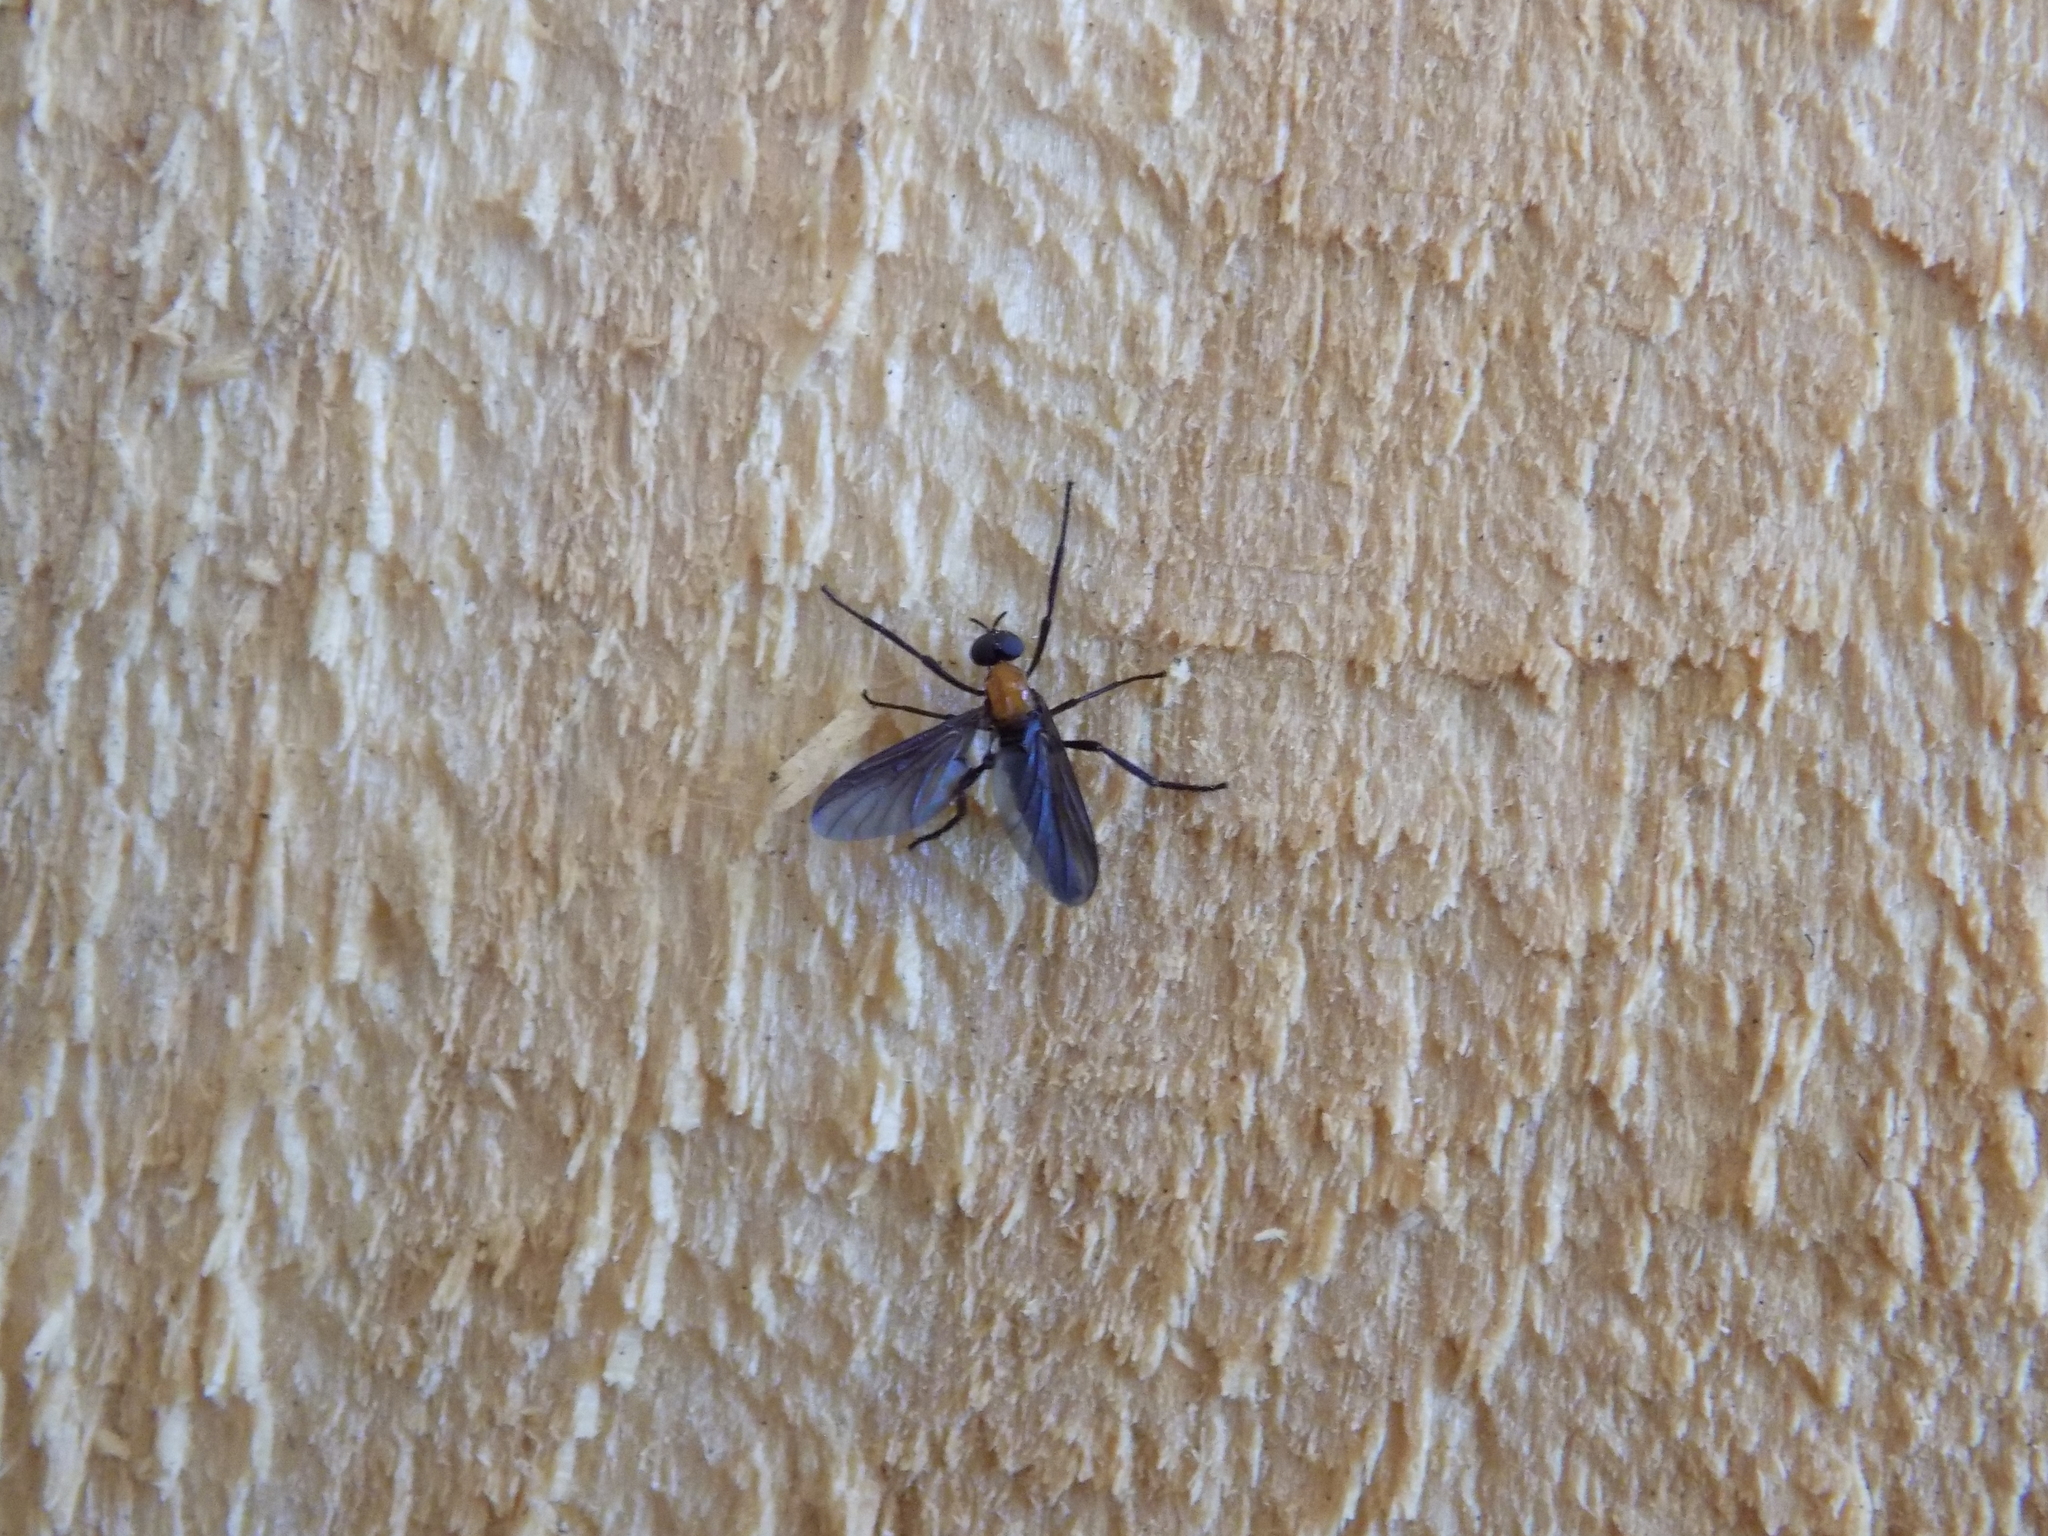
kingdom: Animalia
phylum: Arthropoda
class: Insecta
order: Diptera
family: Bibionidae
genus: Plecia
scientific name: Plecia nearctica
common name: March fly
